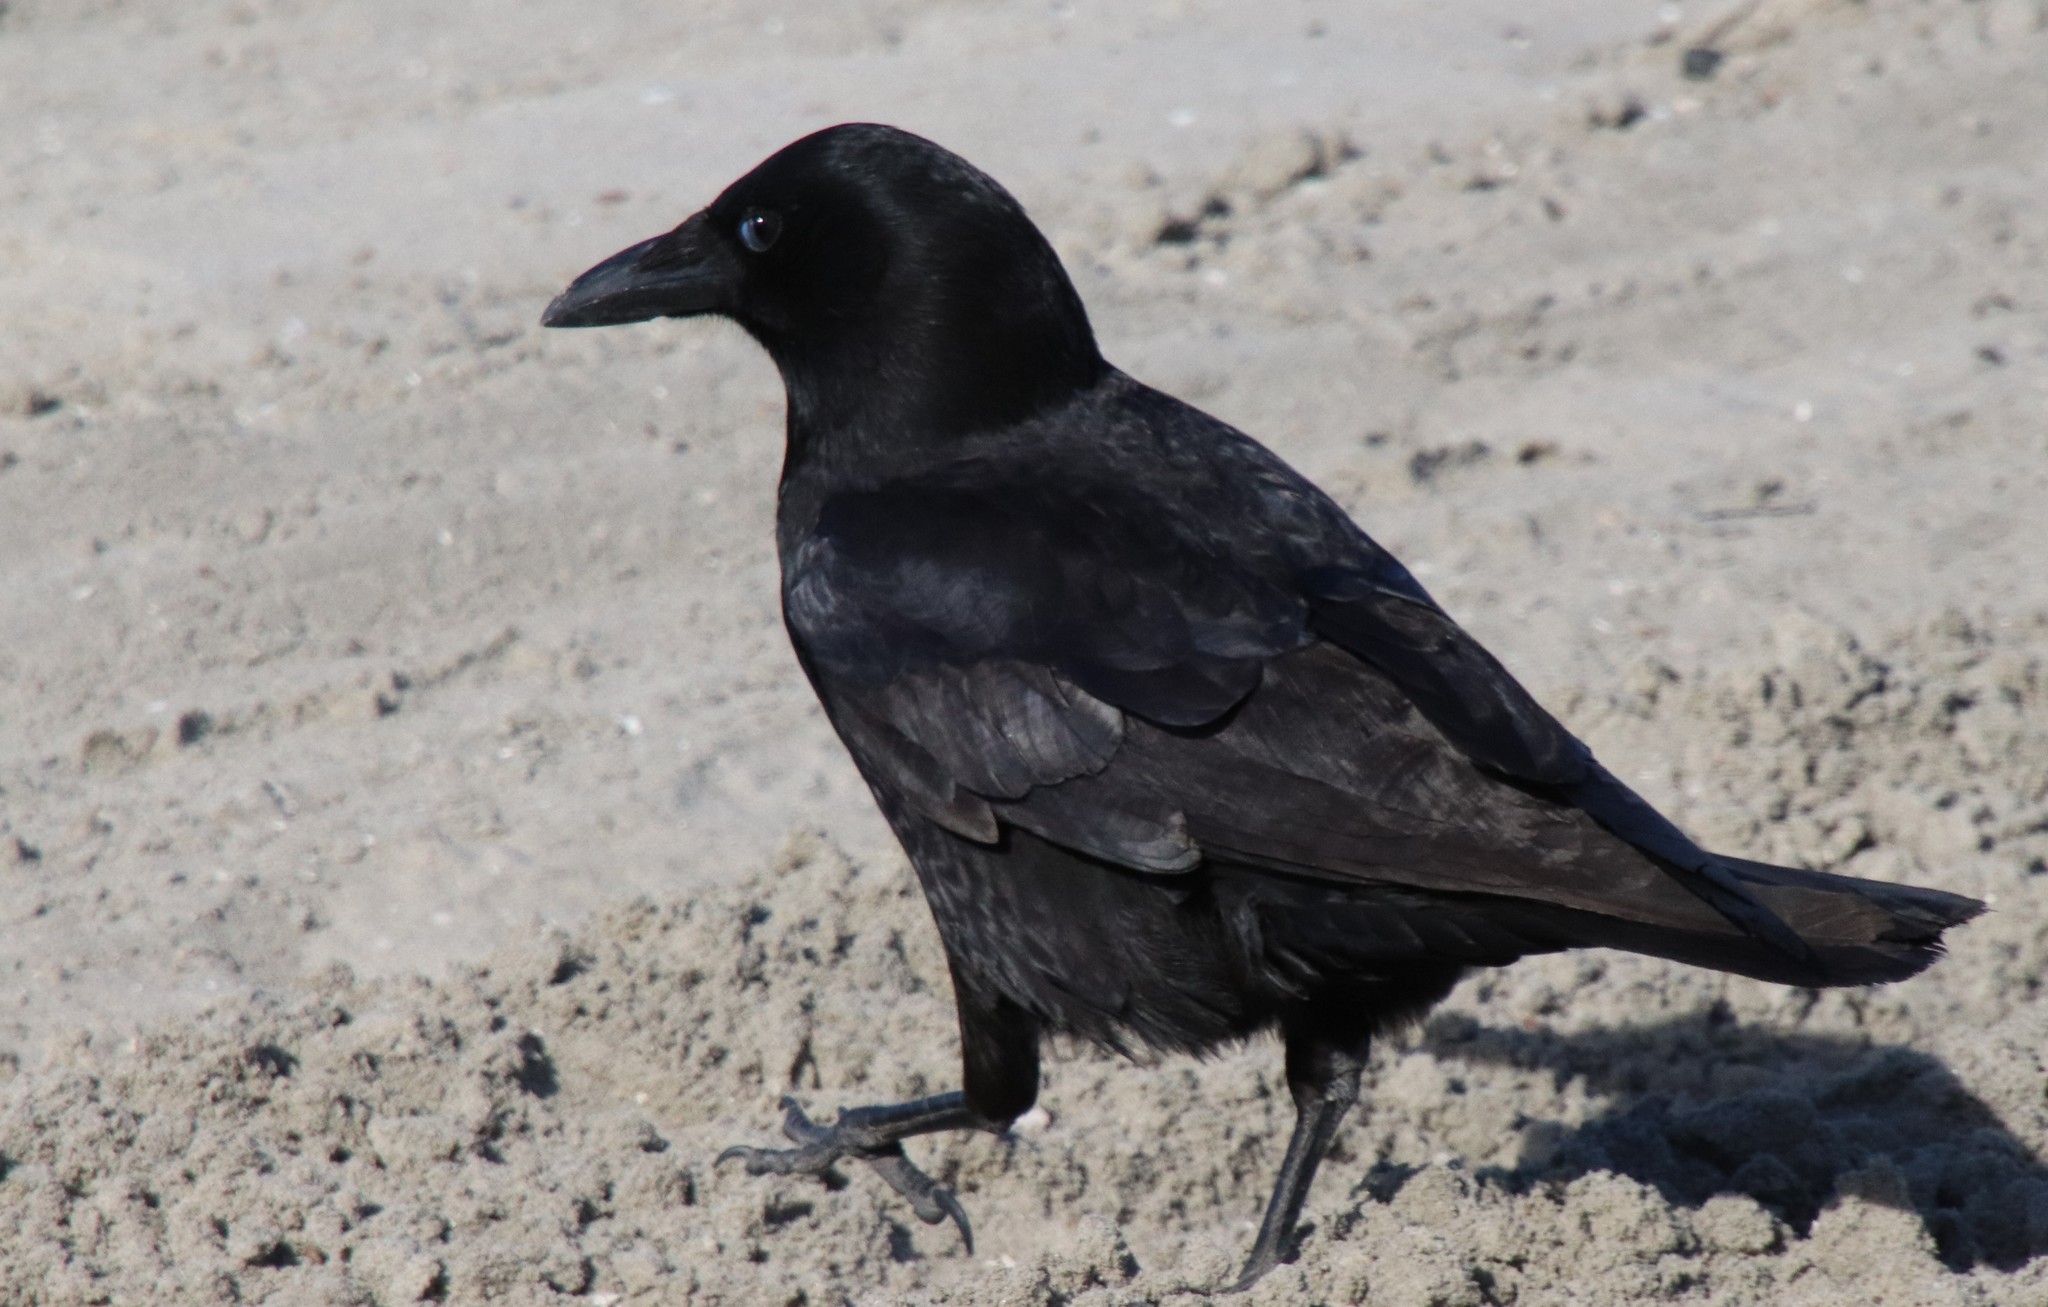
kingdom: Animalia
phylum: Chordata
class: Aves
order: Passeriformes
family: Corvidae
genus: Corvus
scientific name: Corvus brachyrhynchos
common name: American crow
